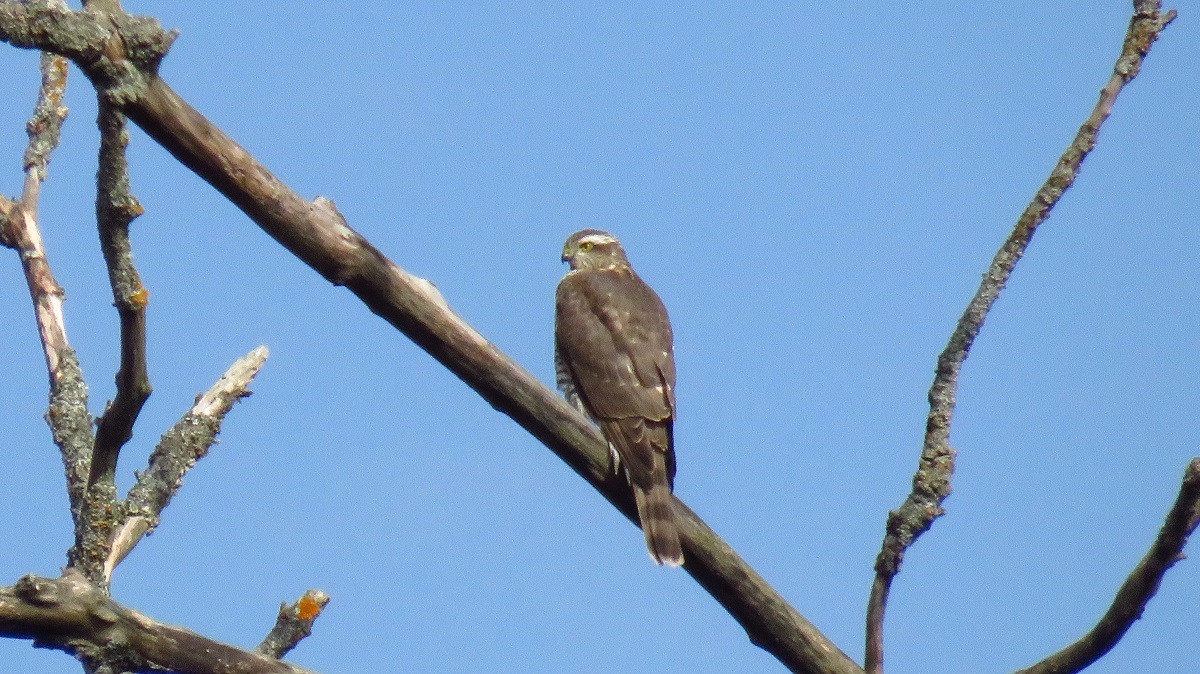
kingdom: Animalia
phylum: Chordata
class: Aves
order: Accipitriformes
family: Accipitridae
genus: Accipiter
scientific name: Accipiter nisus
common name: Eurasian sparrowhawk
